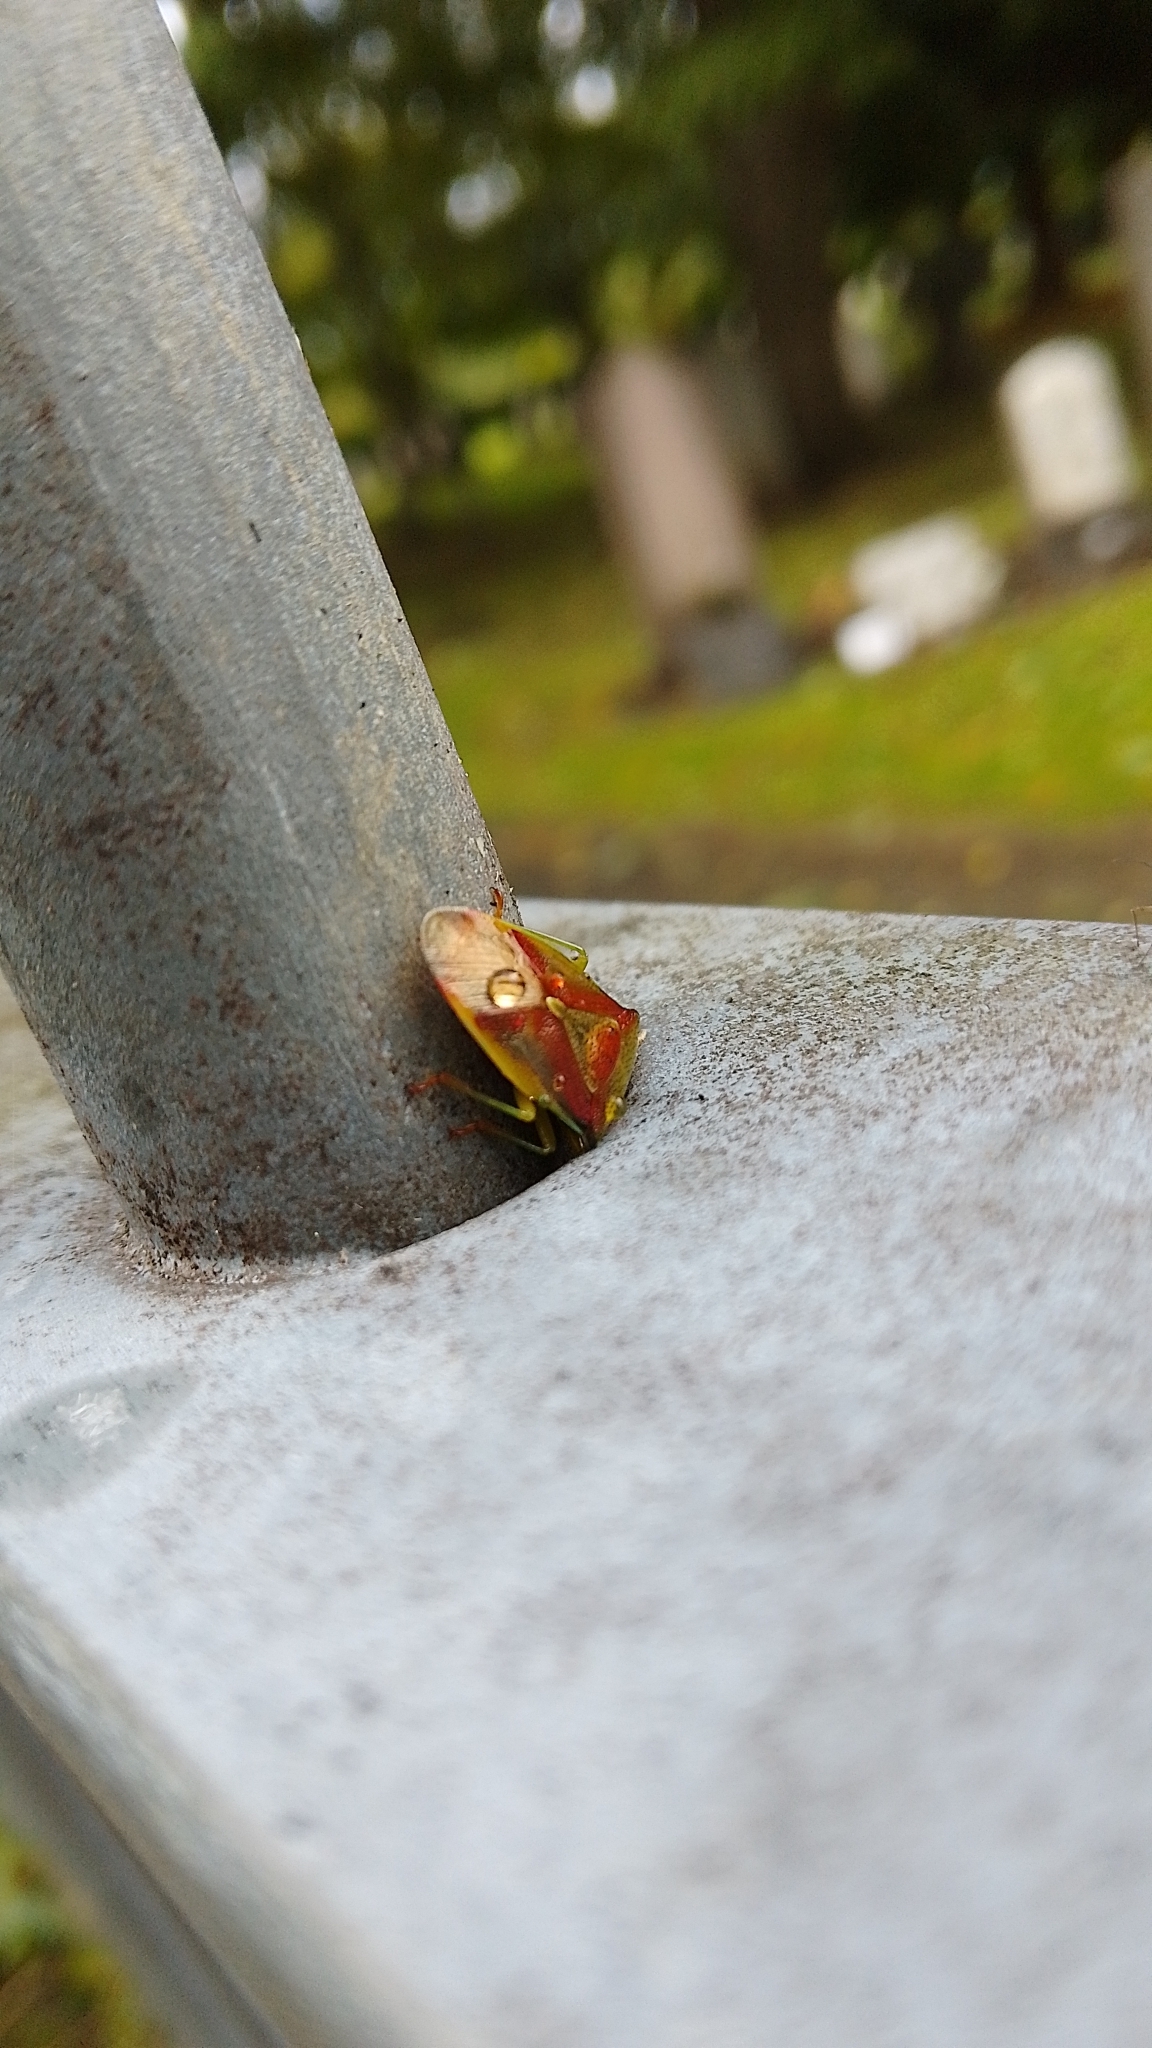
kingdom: Animalia
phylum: Arthropoda
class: Insecta
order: Hemiptera
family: Acanthosomatidae
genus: Elasmostethus
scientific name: Elasmostethus interstinctus
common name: Birch shieldbug
